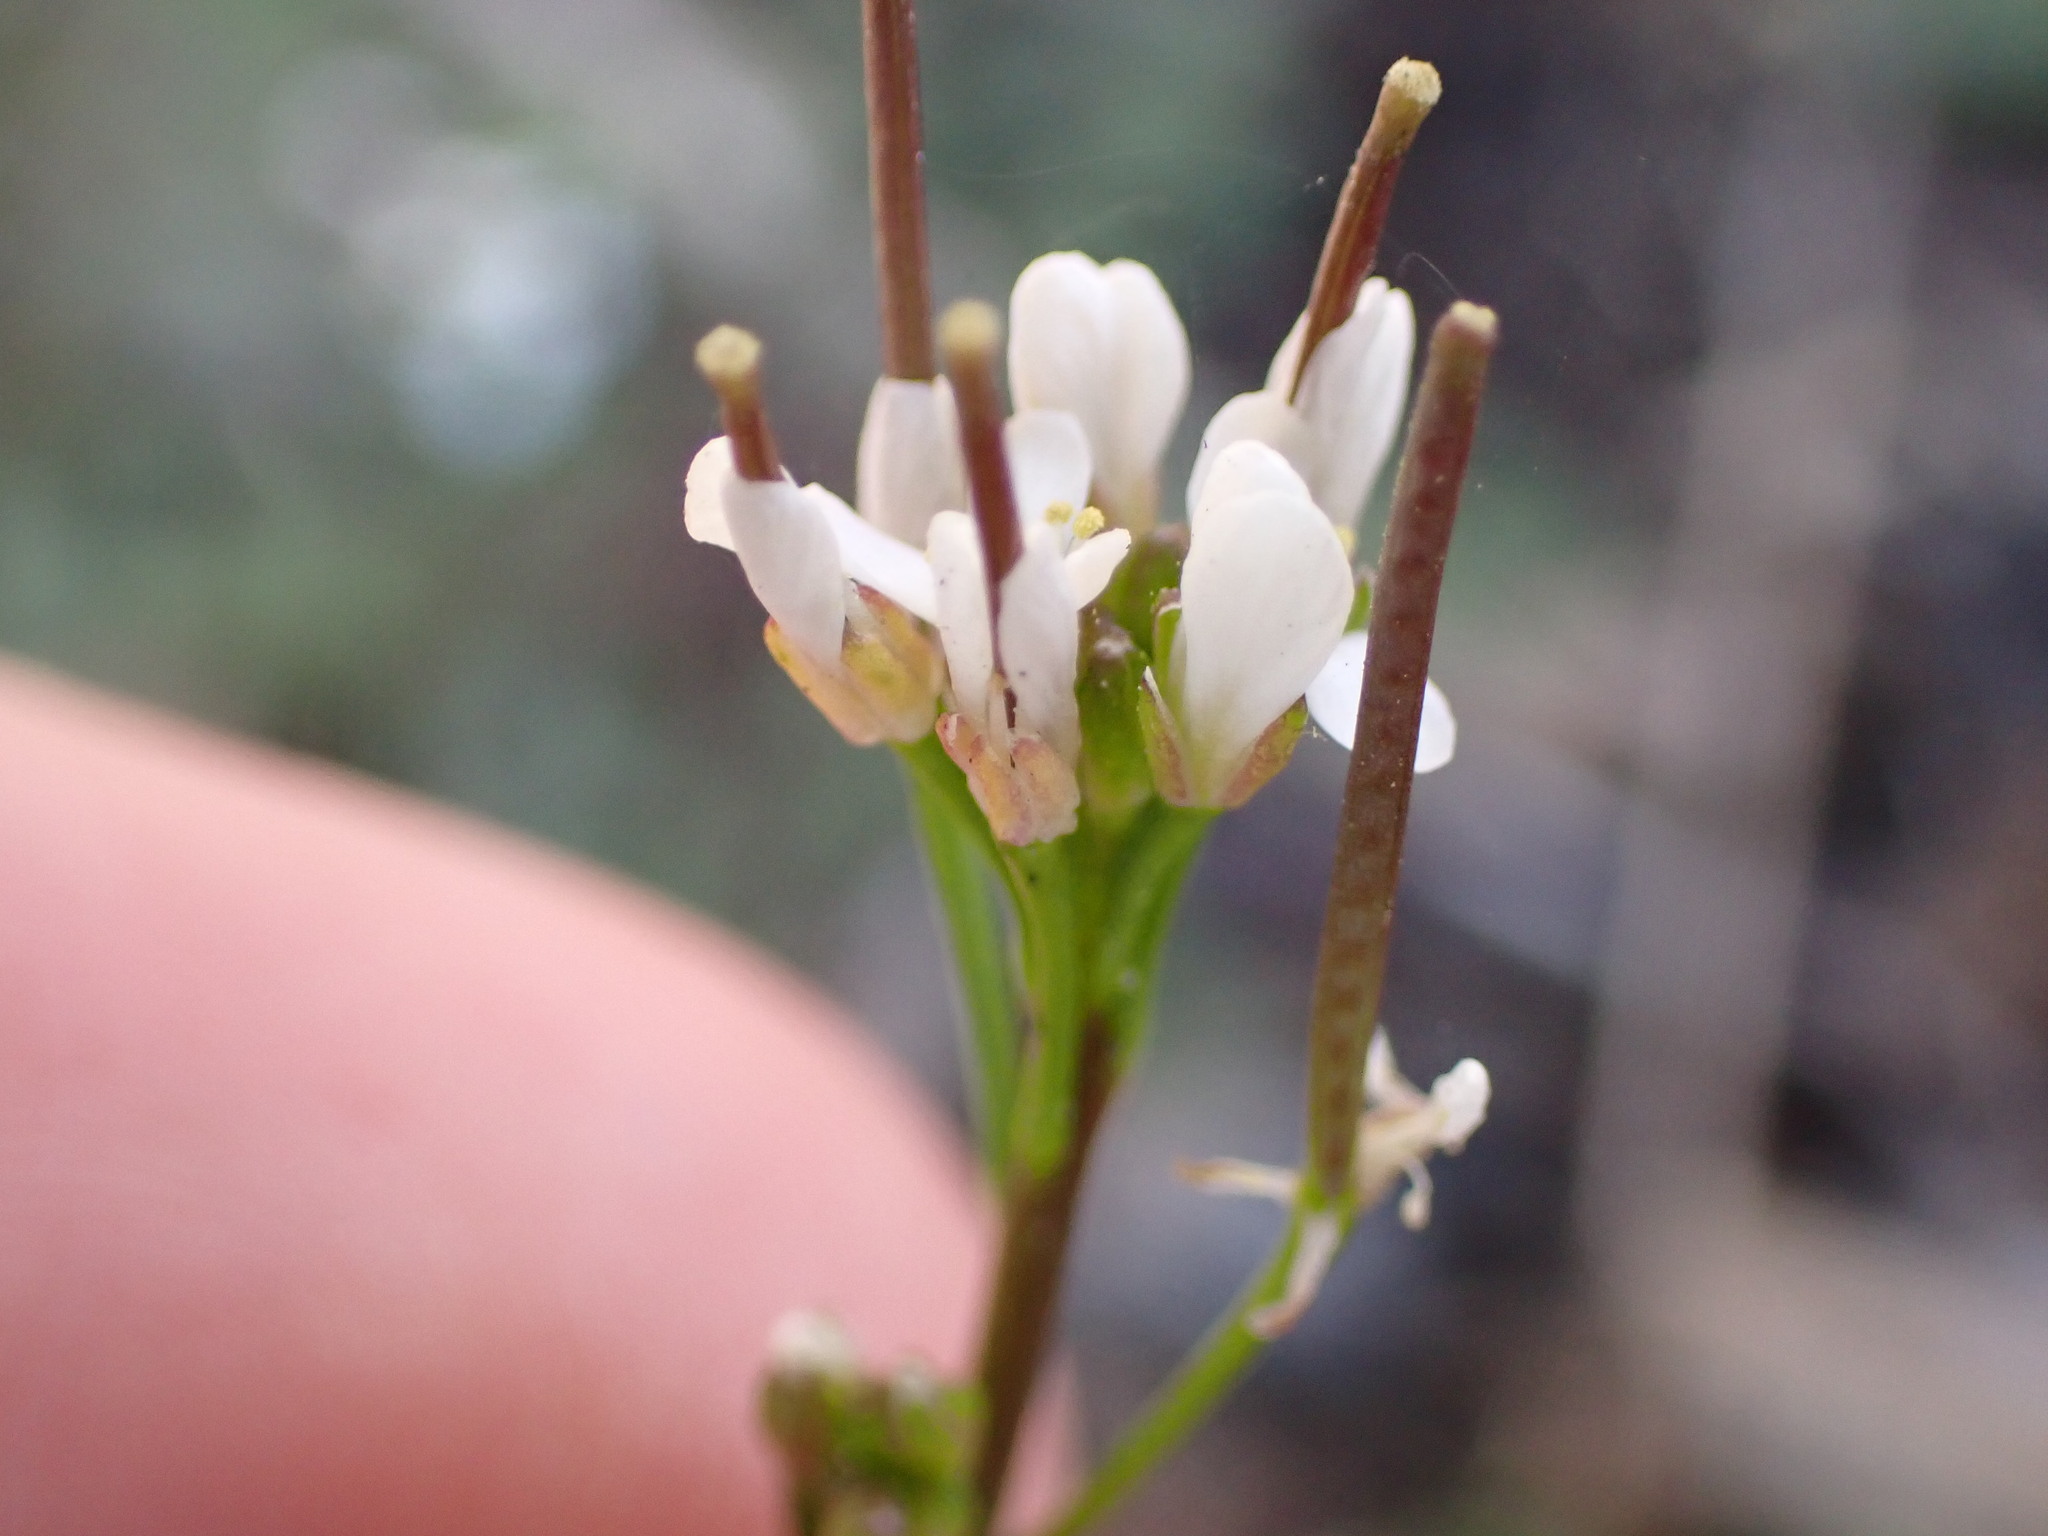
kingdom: Plantae
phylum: Tracheophyta
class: Magnoliopsida
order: Brassicales
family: Brassicaceae
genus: Cardamine
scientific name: Cardamine hirsuta
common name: Hairy bittercress
